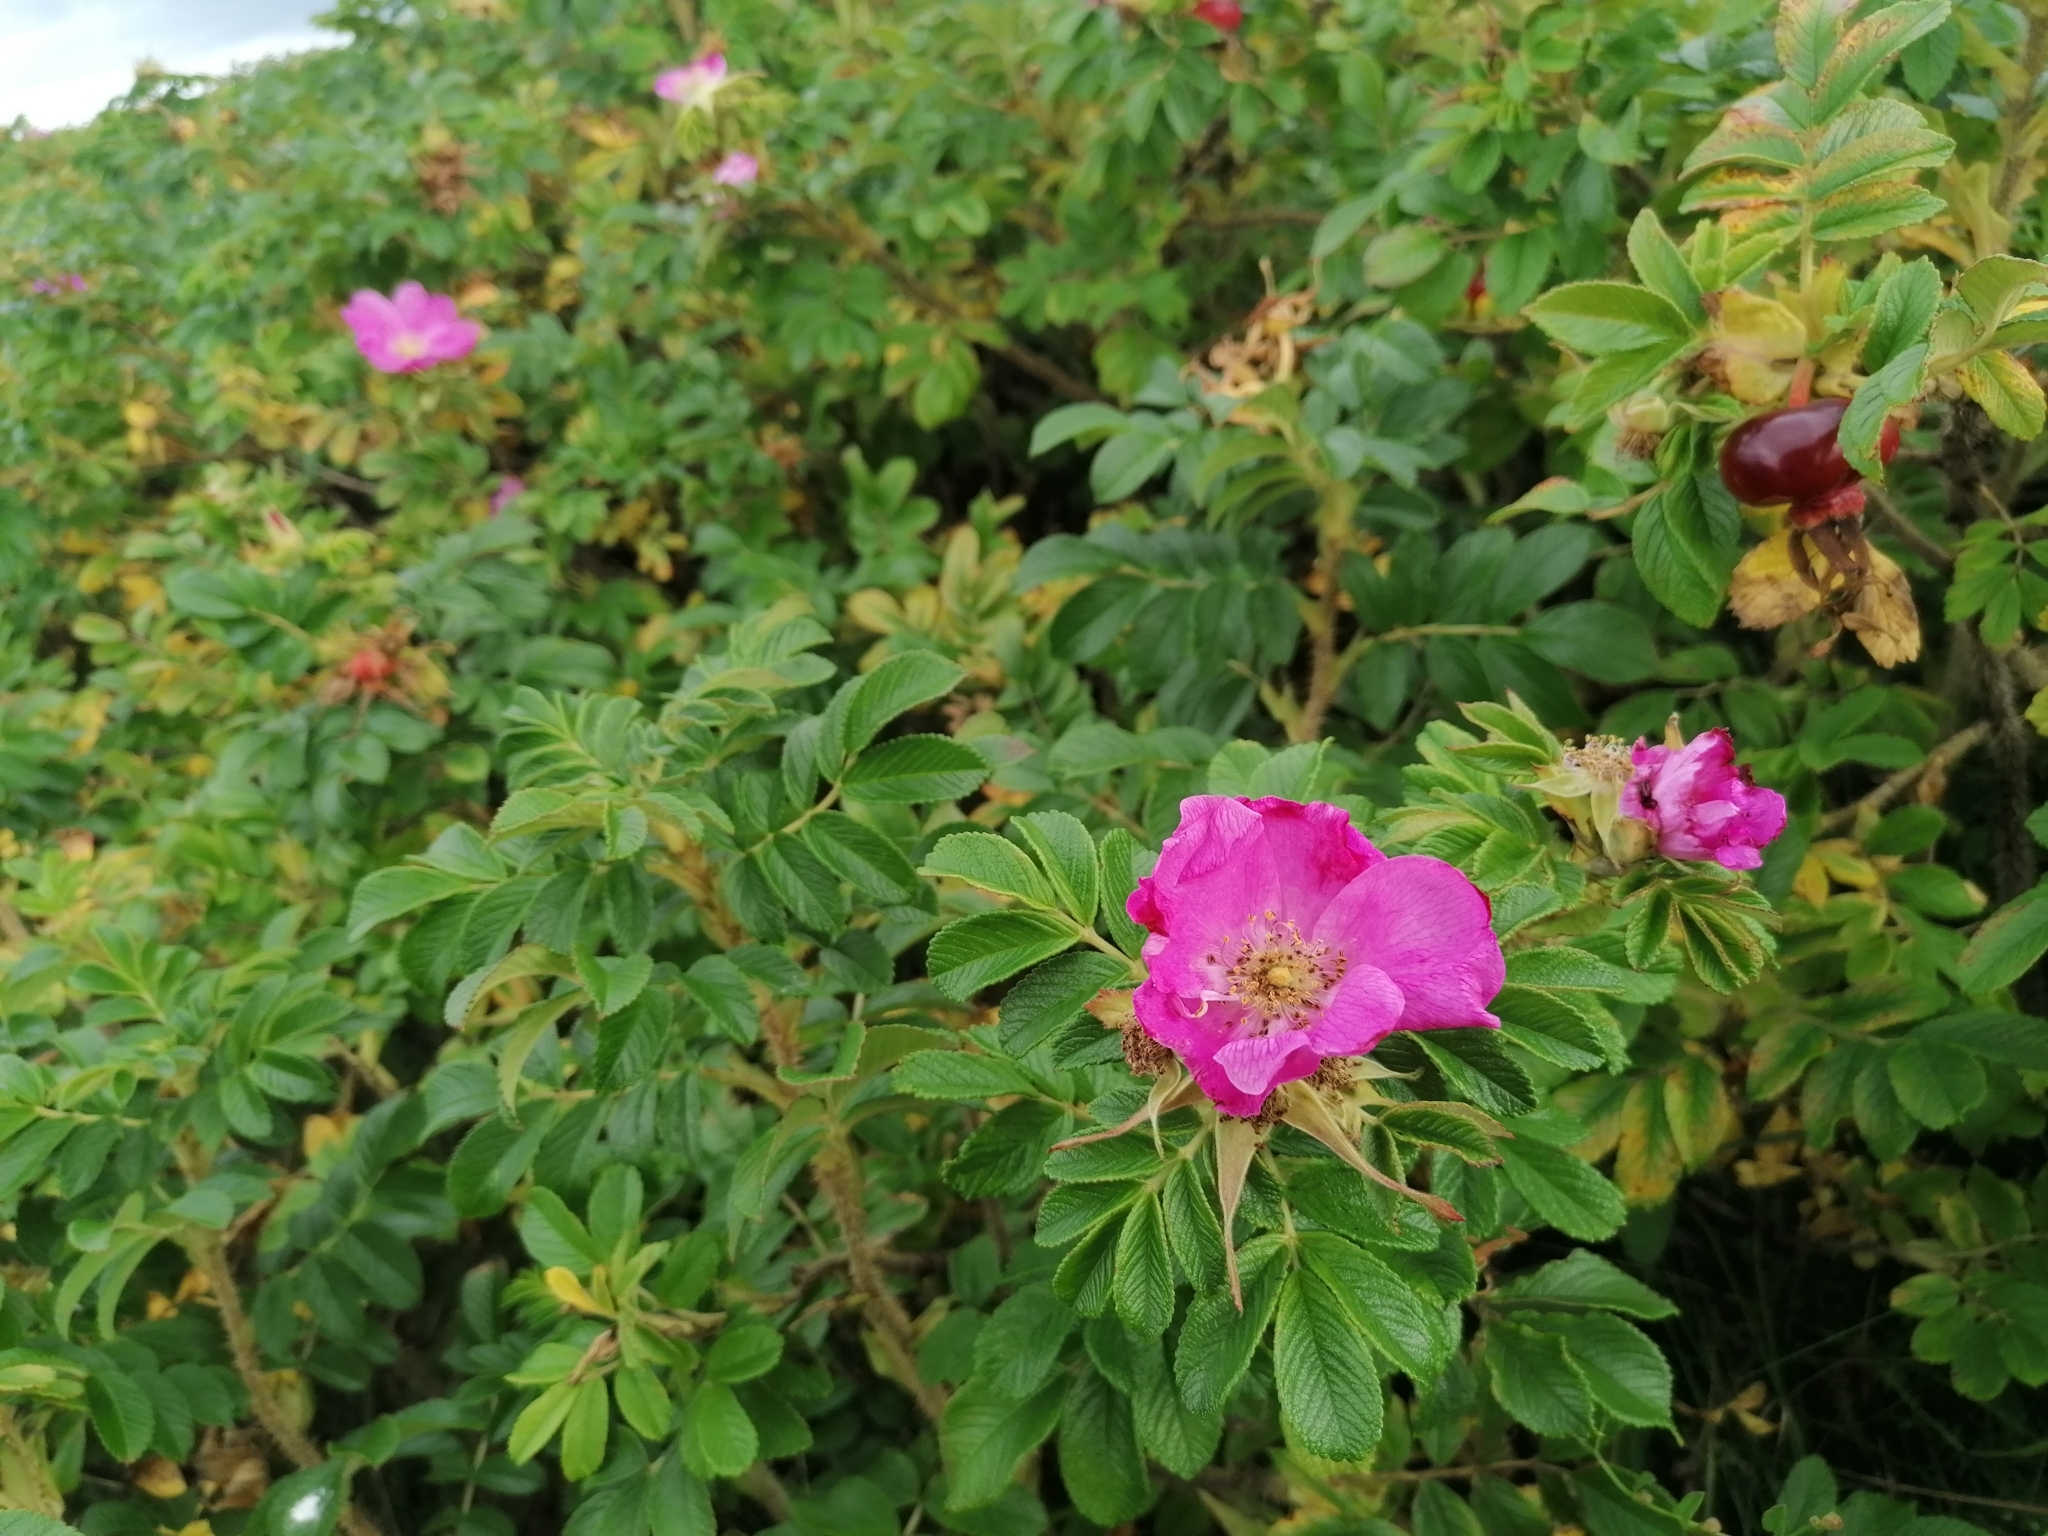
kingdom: Plantae
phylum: Tracheophyta
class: Magnoliopsida
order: Rosales
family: Rosaceae
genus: Rosa
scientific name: Rosa rugosa
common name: Japanese rose
